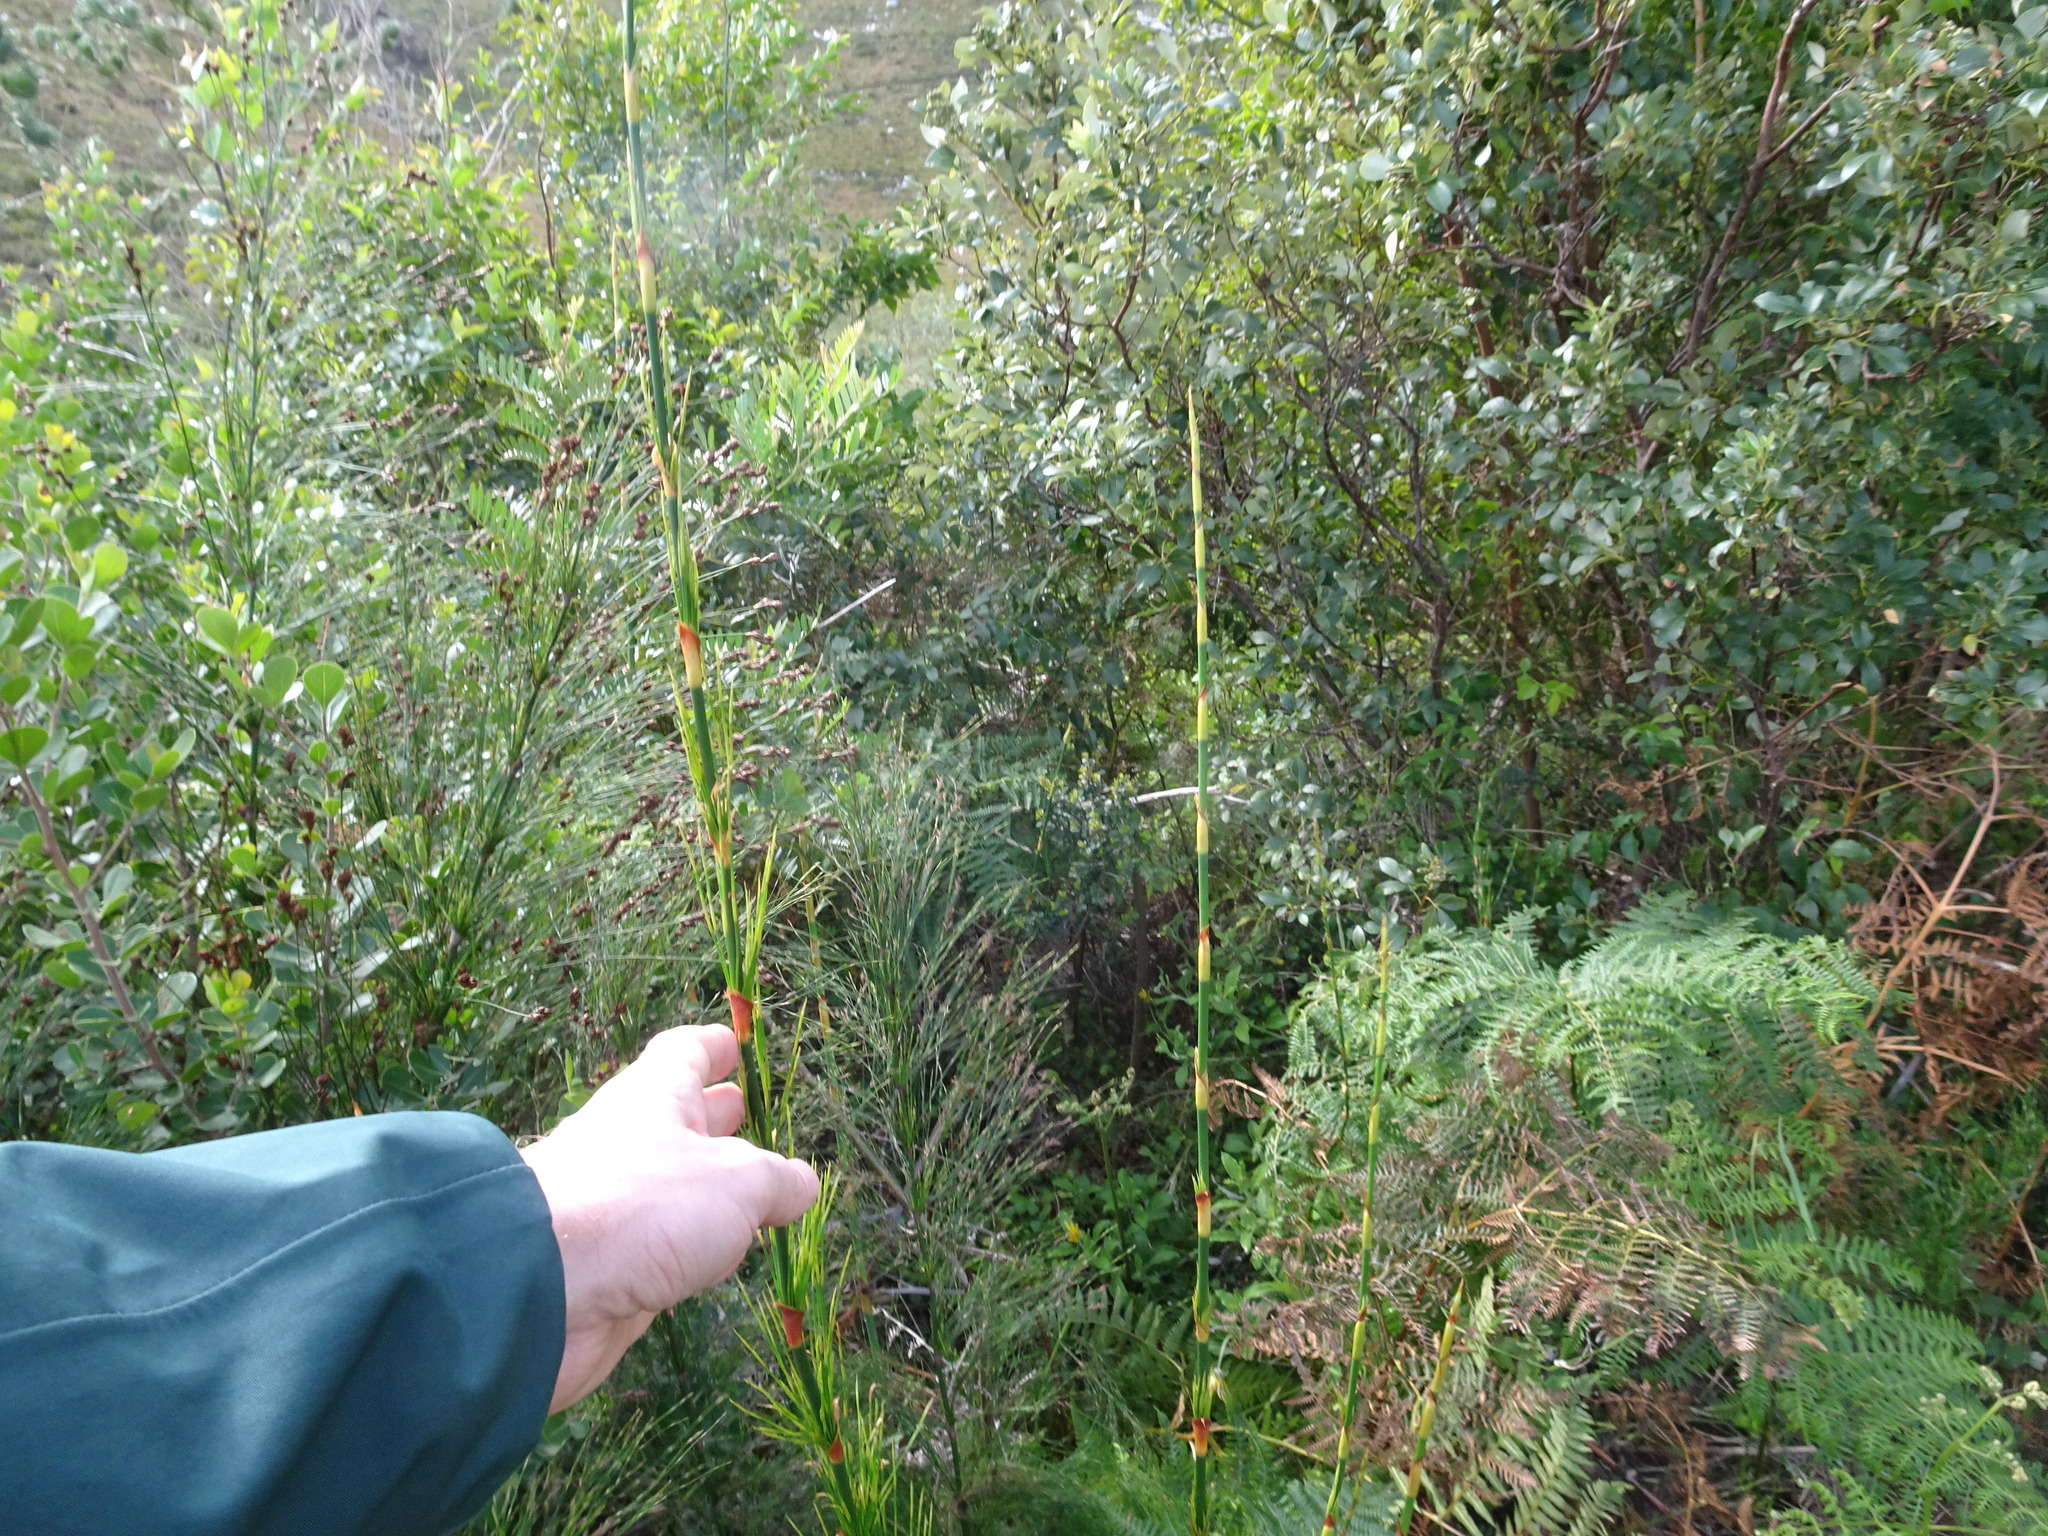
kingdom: Plantae
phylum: Tracheophyta
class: Liliopsida
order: Poales
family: Restionaceae
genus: Elegia
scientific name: Elegia capensis
